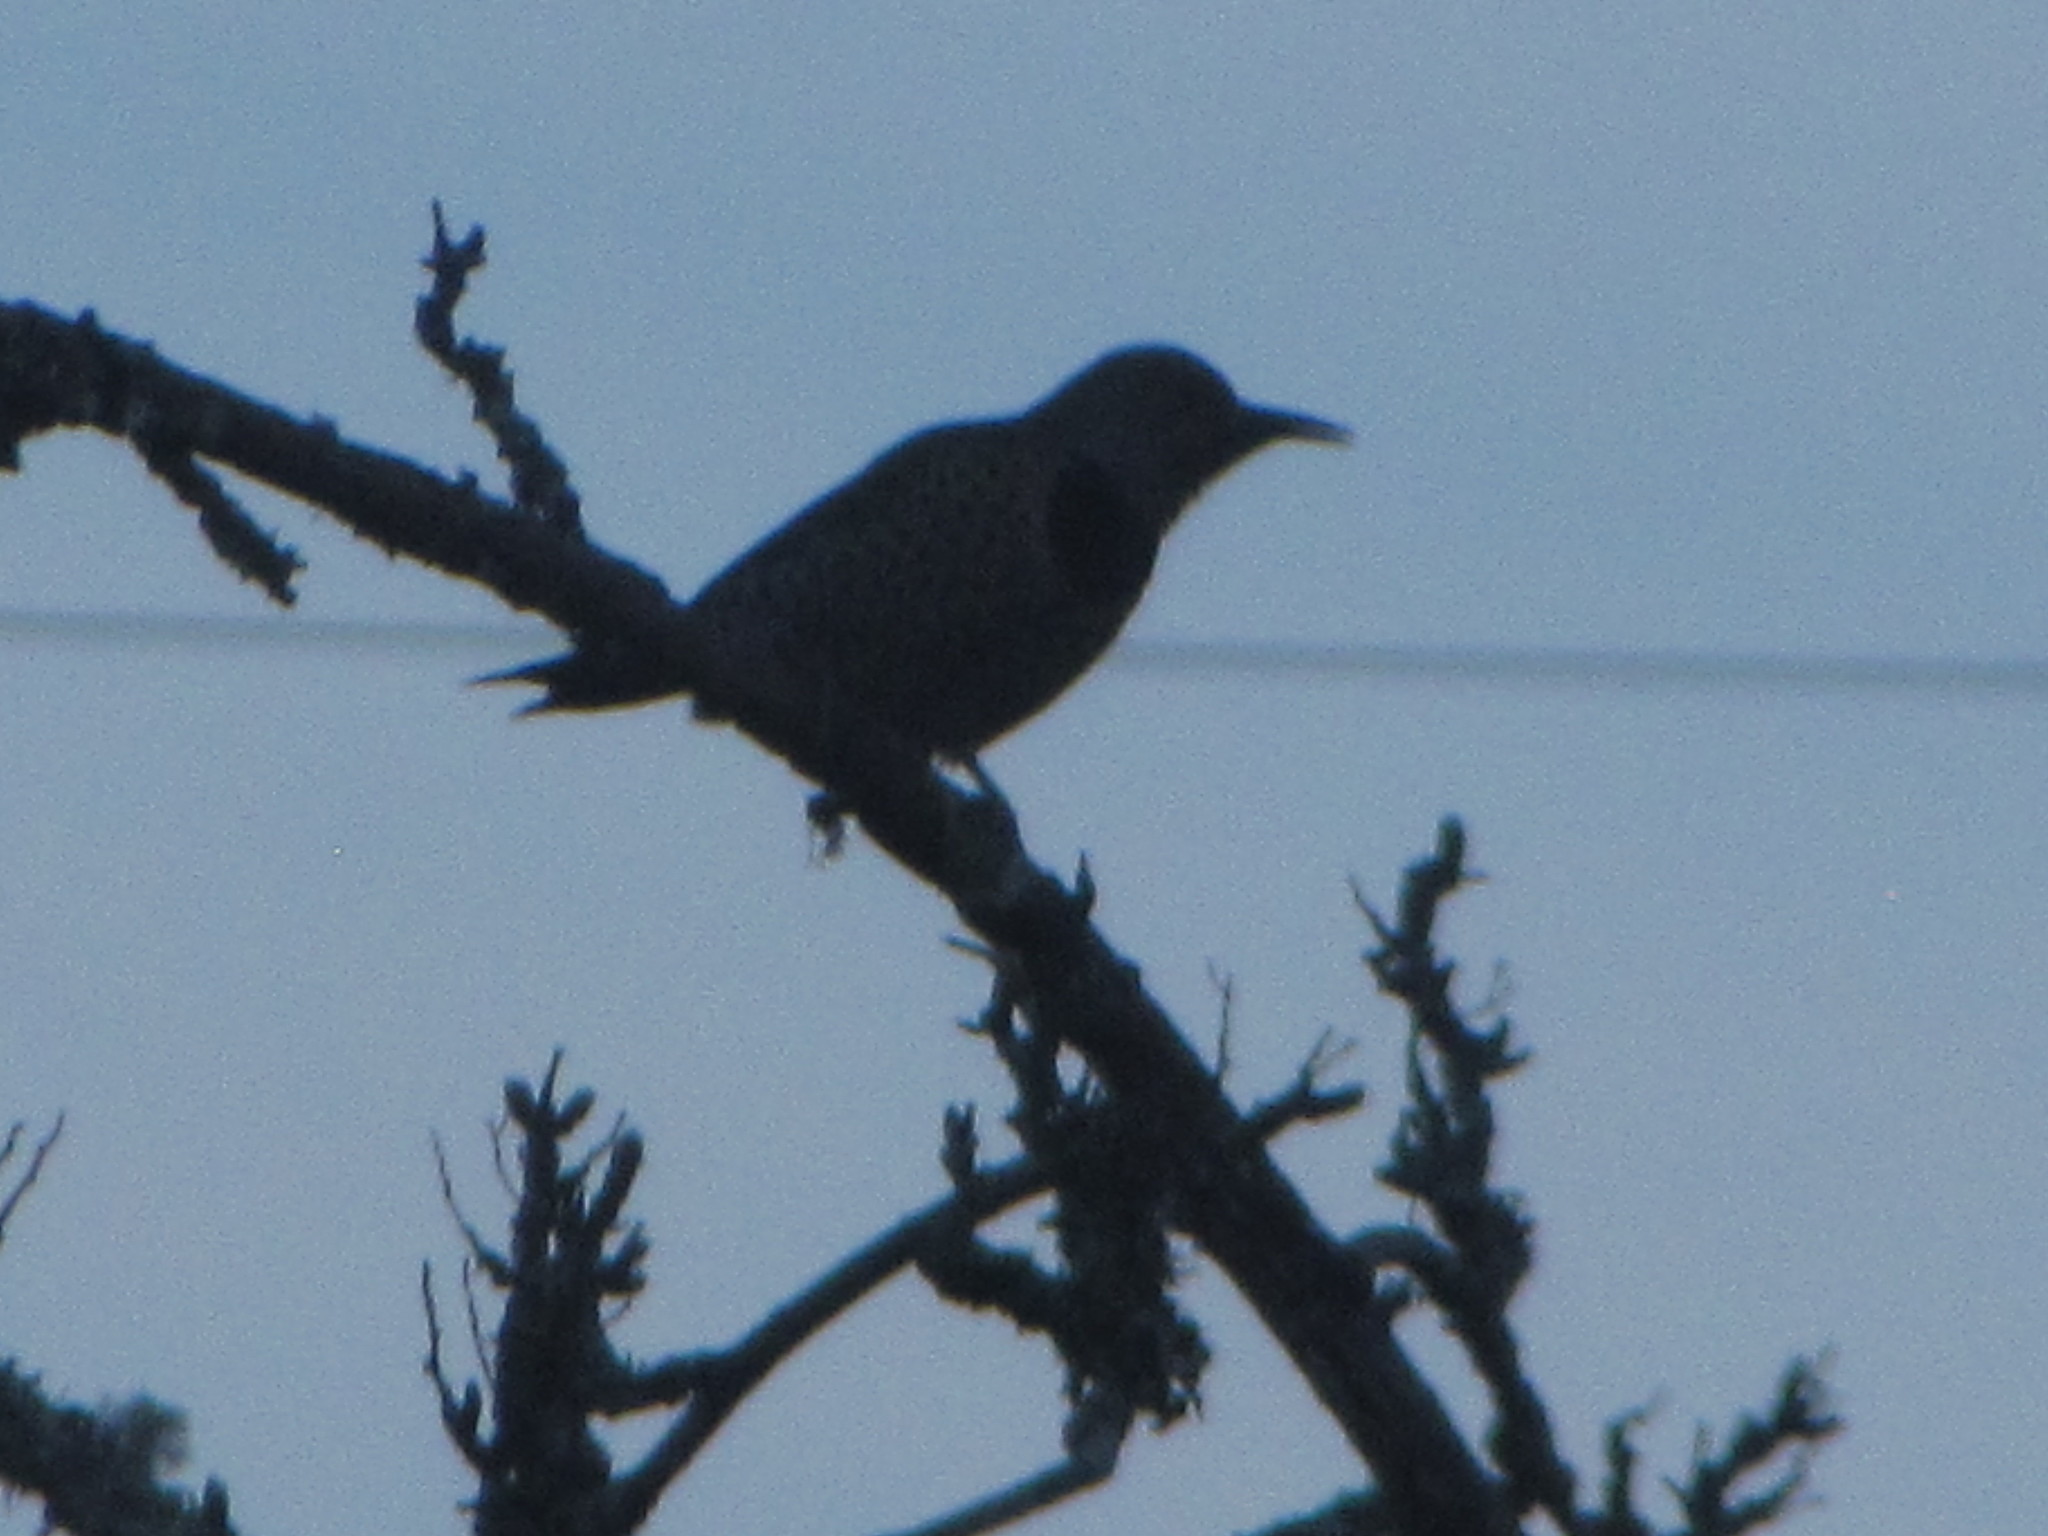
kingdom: Animalia
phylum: Chordata
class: Aves
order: Piciformes
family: Picidae
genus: Colaptes
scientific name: Colaptes auratus
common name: Northern flicker
